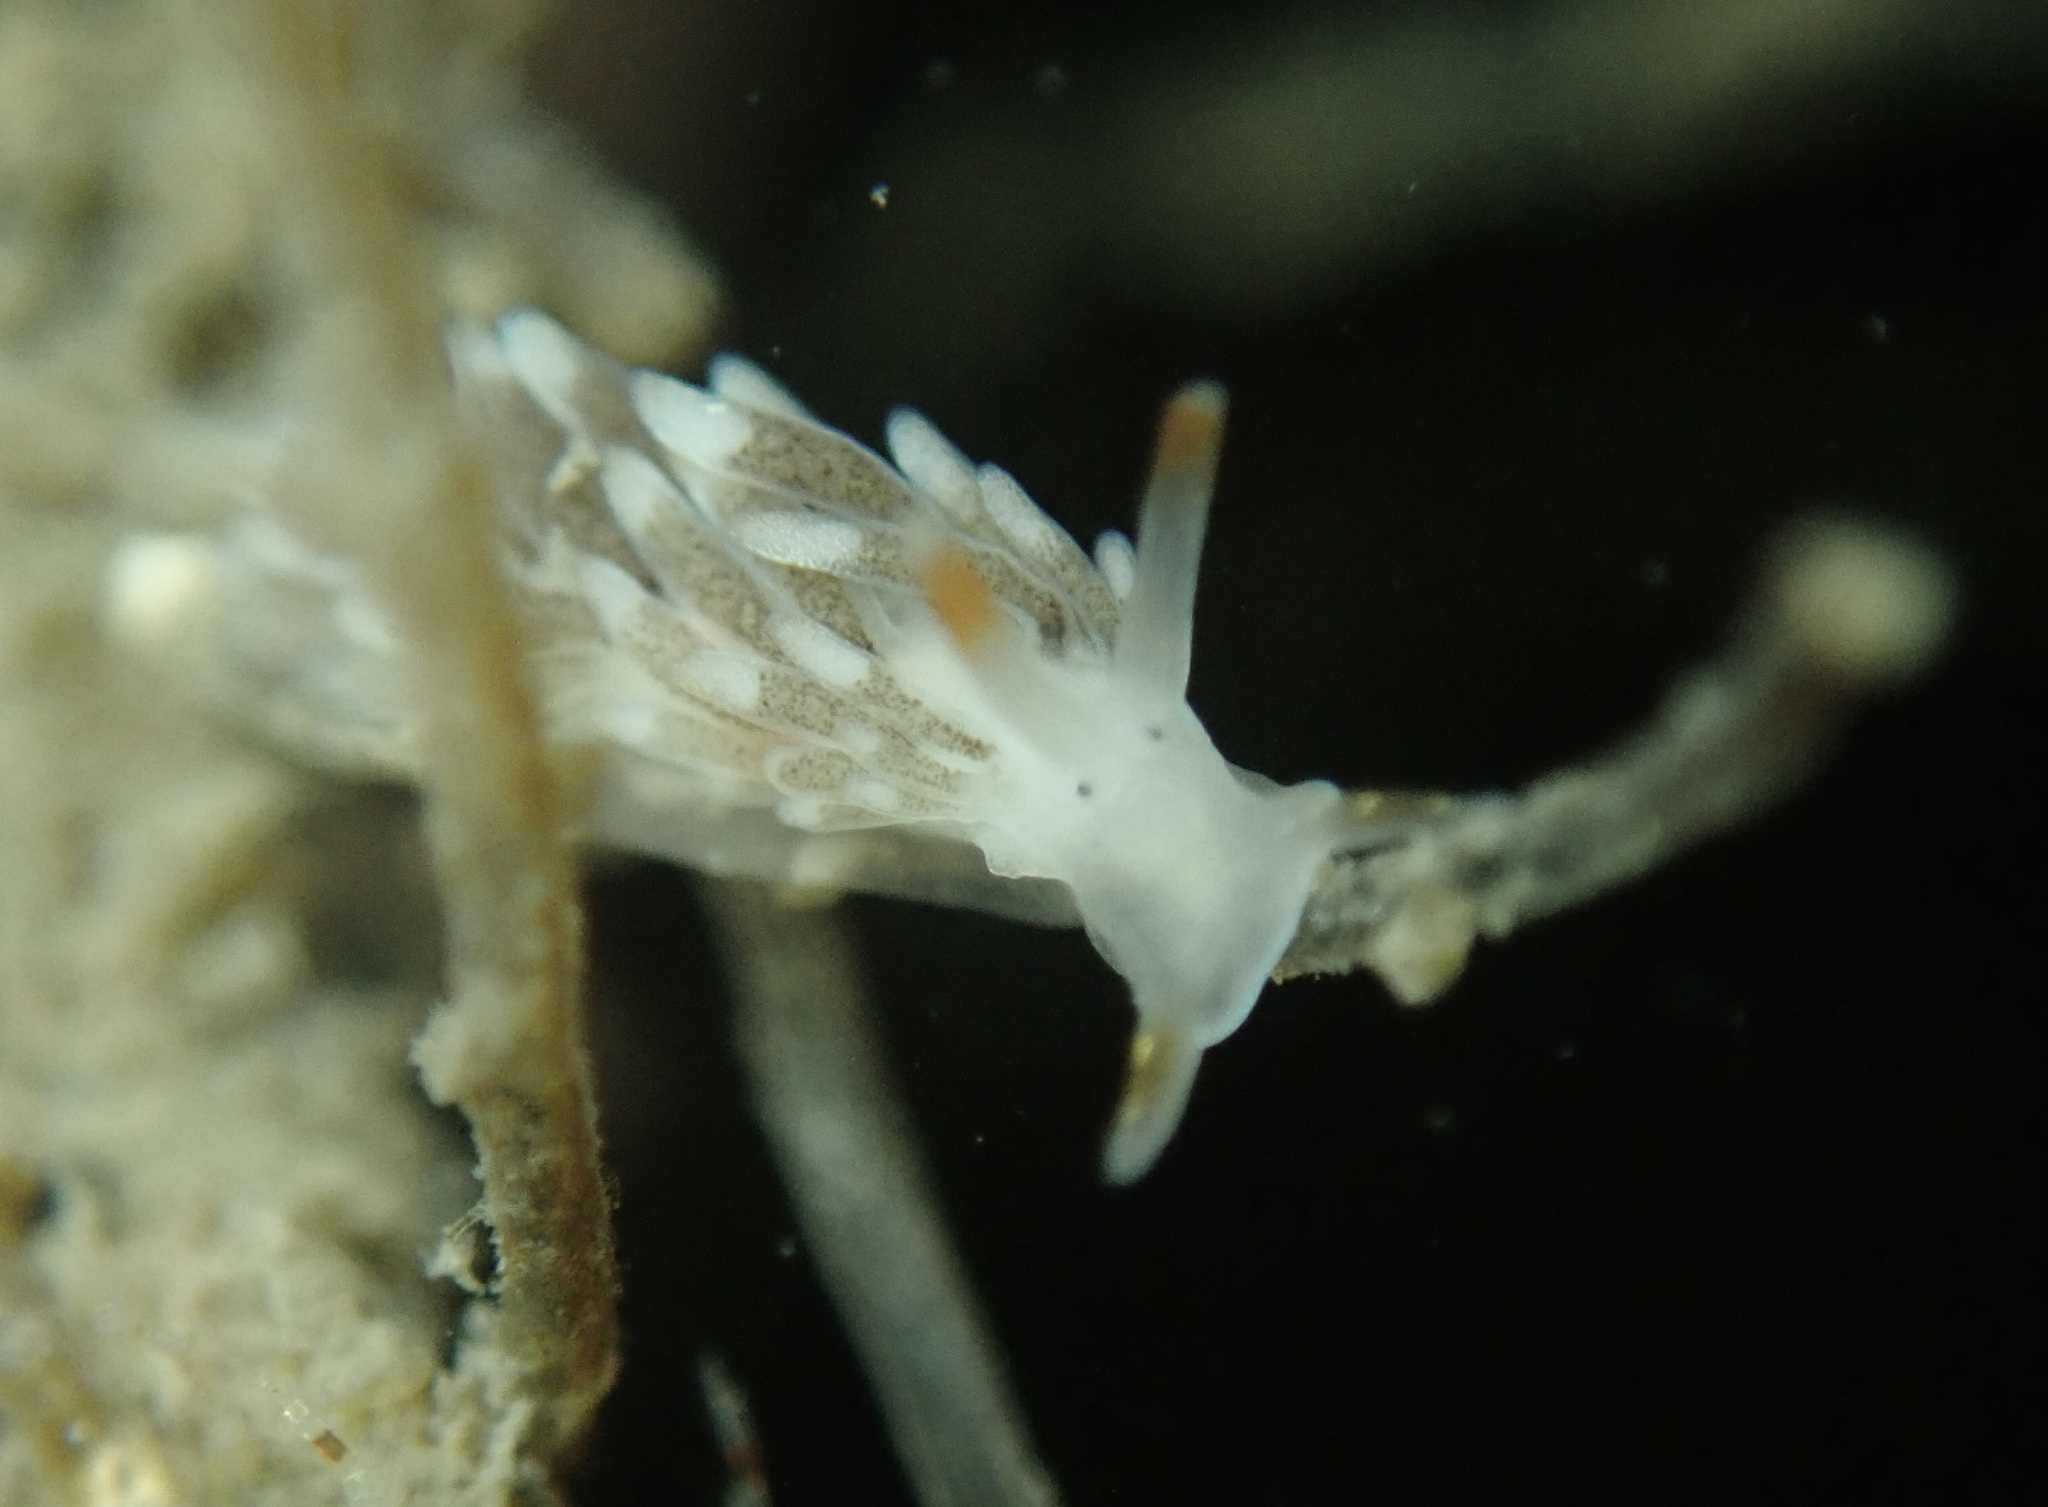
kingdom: Animalia
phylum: Mollusca
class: Gastropoda
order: Nudibranchia
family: Trinchesiidae
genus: Catriona
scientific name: Catriona spadix
